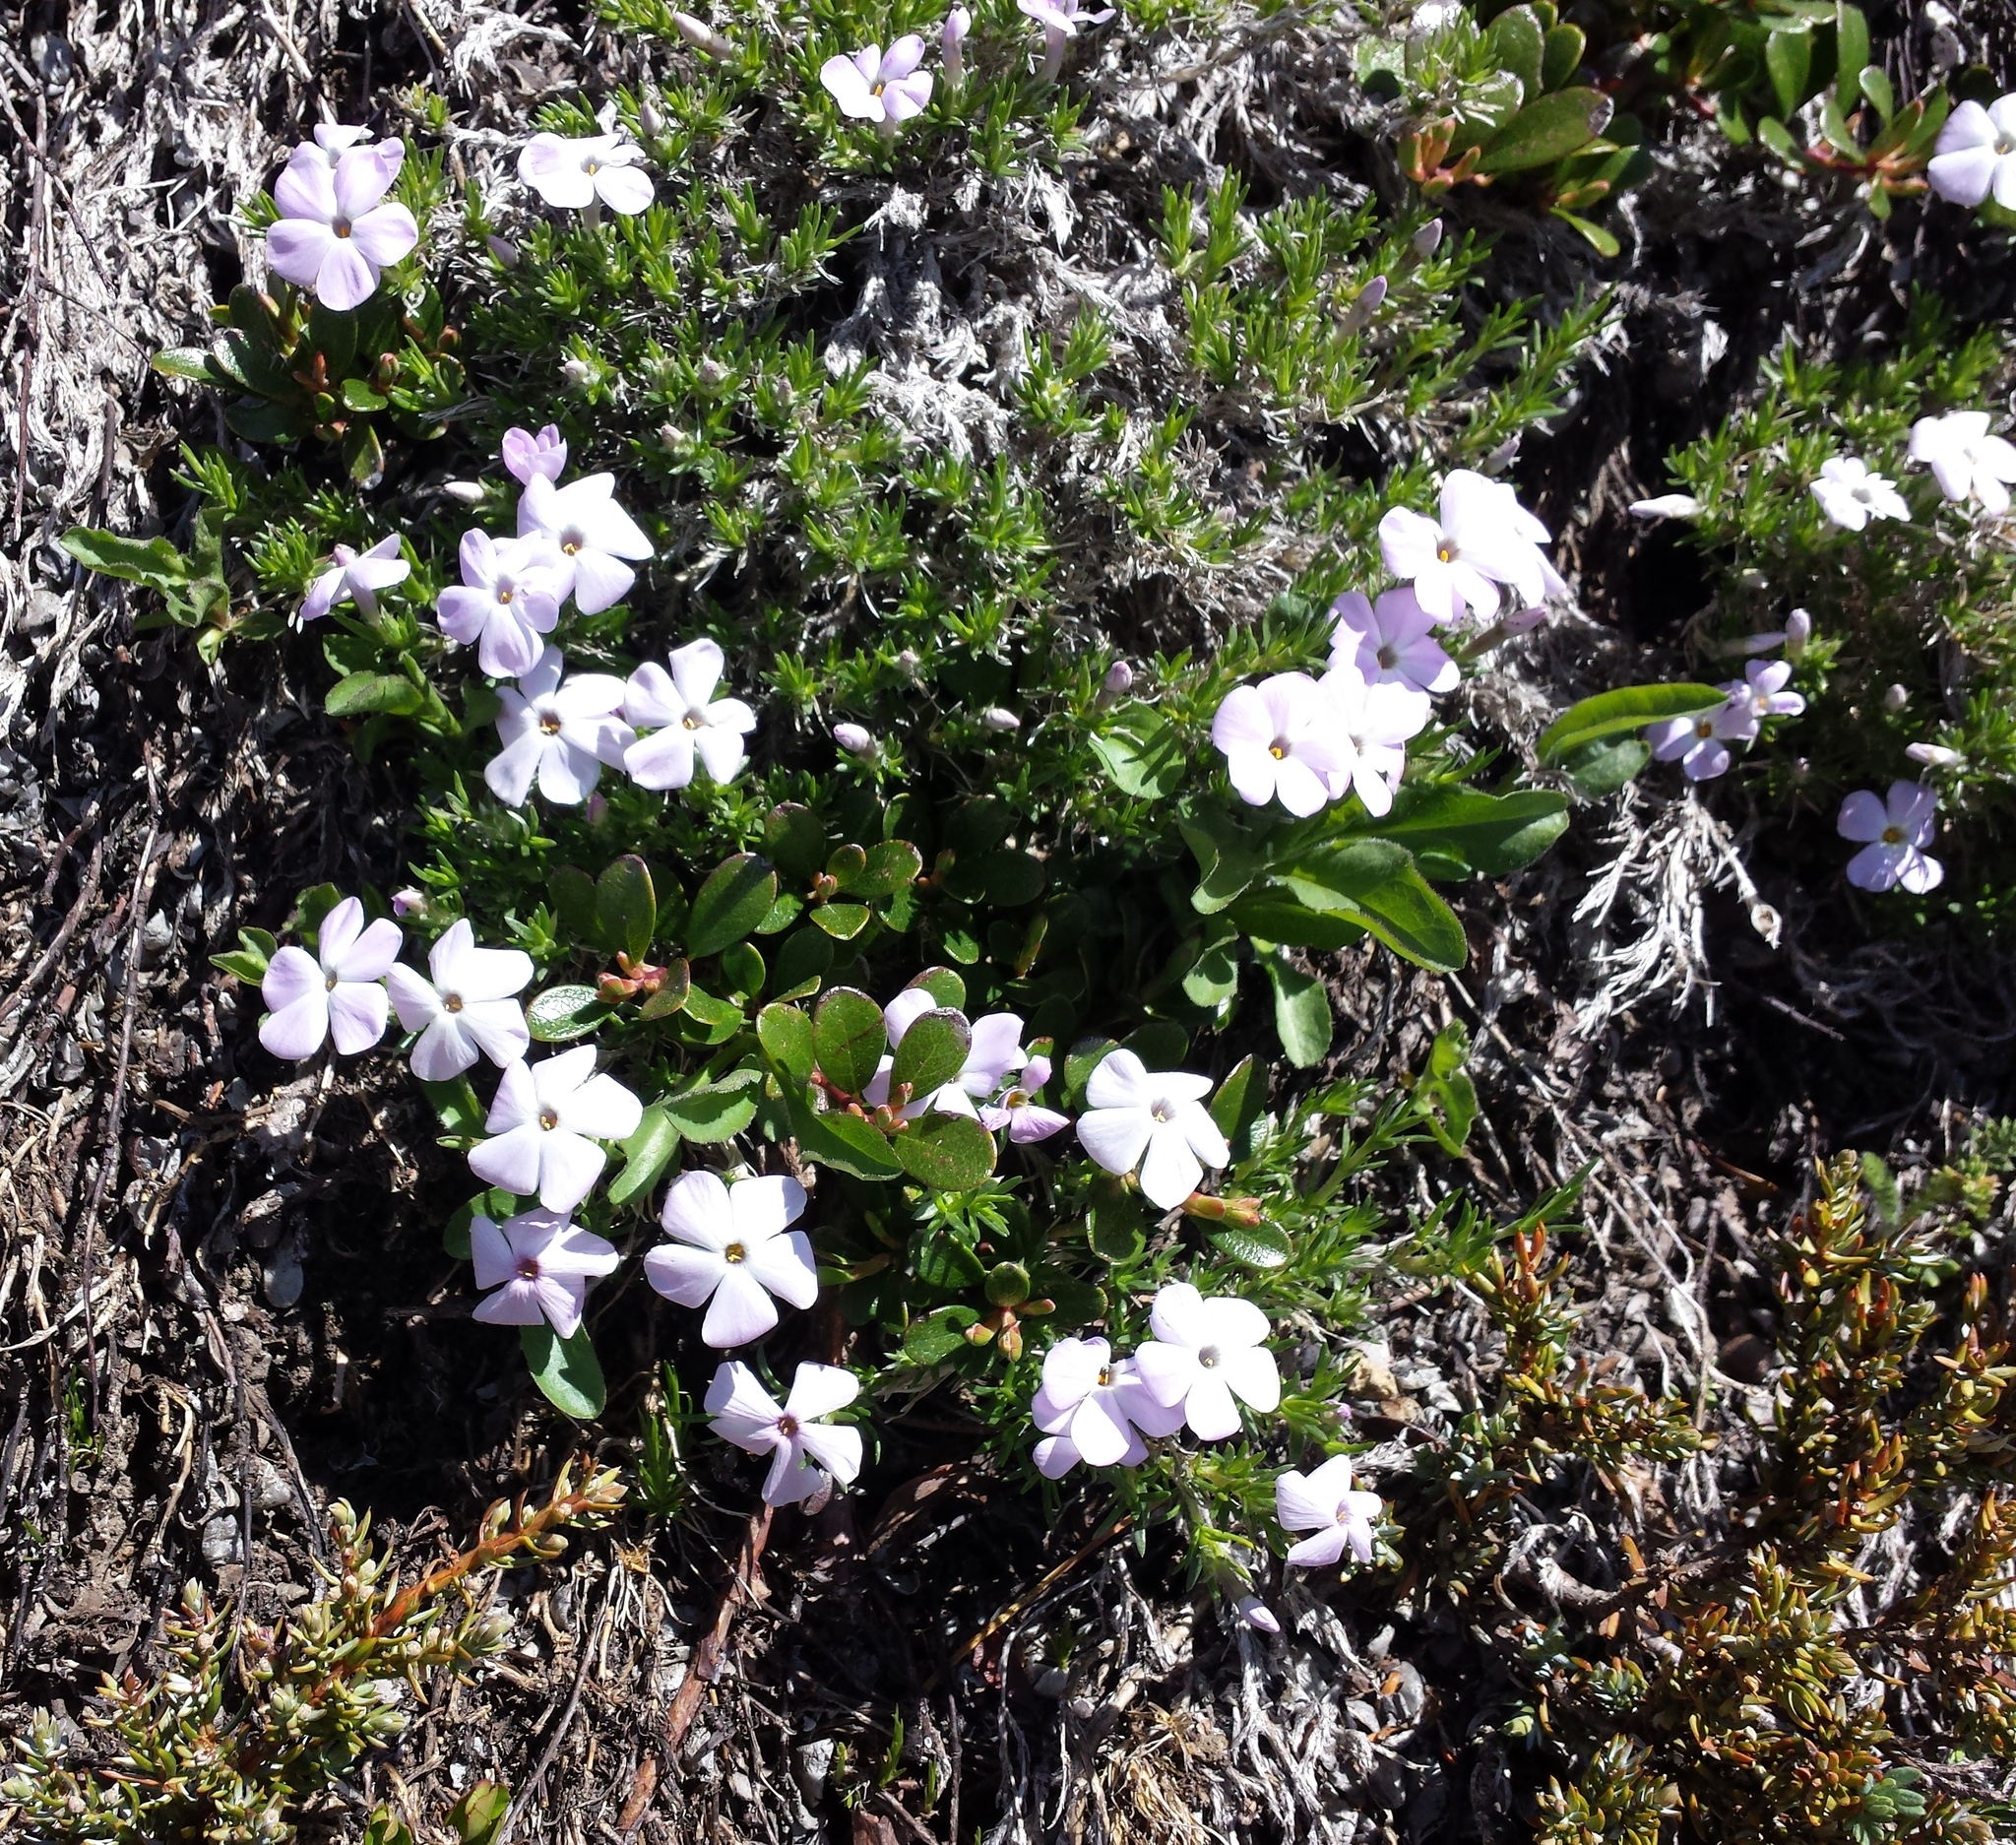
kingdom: Plantae
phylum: Tracheophyta
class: Magnoliopsida
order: Ericales
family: Polemoniaceae
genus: Phlox
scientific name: Phlox diffusa
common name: Mat phlox
